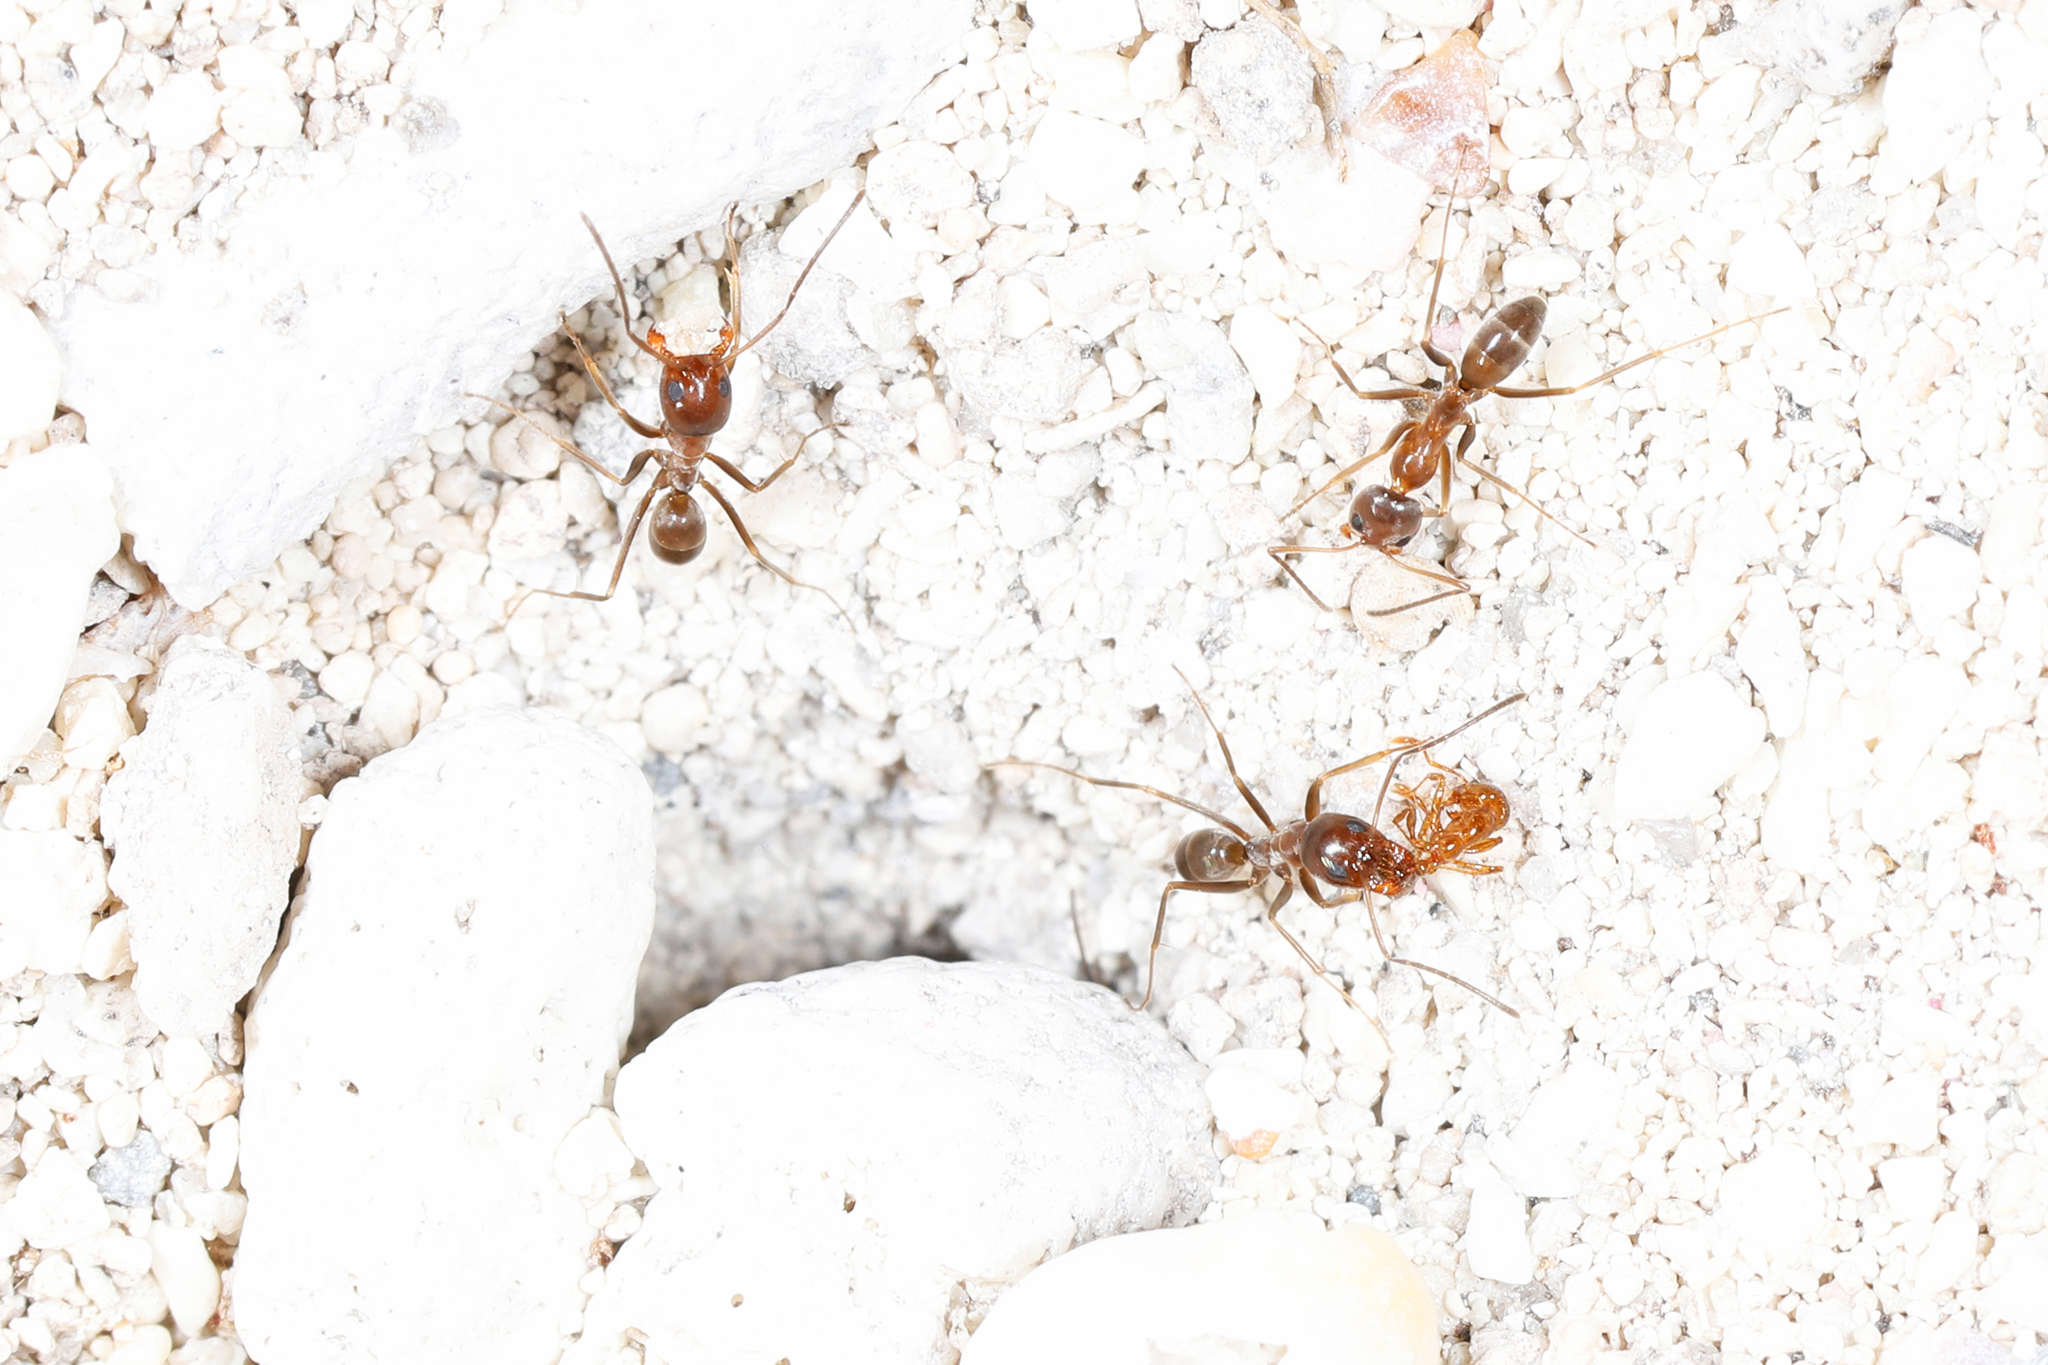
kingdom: Animalia
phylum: Arthropoda
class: Insecta
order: Hymenoptera
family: Formicidae
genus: Dorymyrmex
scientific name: Dorymyrmex bureni
